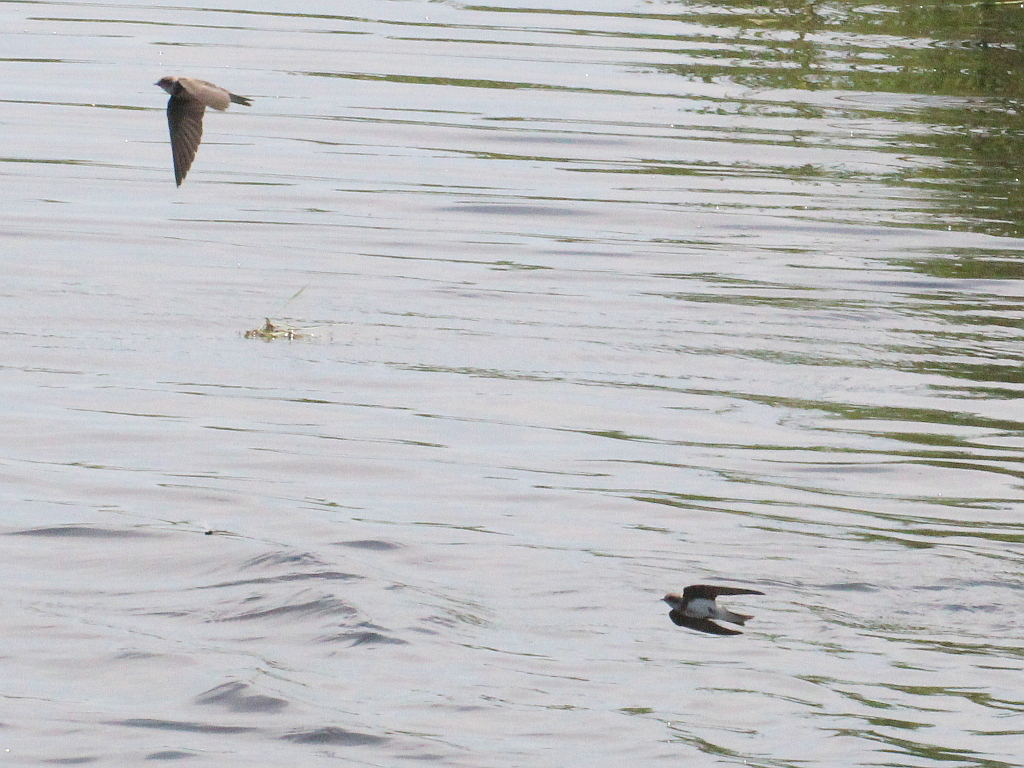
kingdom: Animalia
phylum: Chordata
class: Aves
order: Passeriformes
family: Hirundinidae
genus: Riparia
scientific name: Riparia riparia
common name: Sand martin
